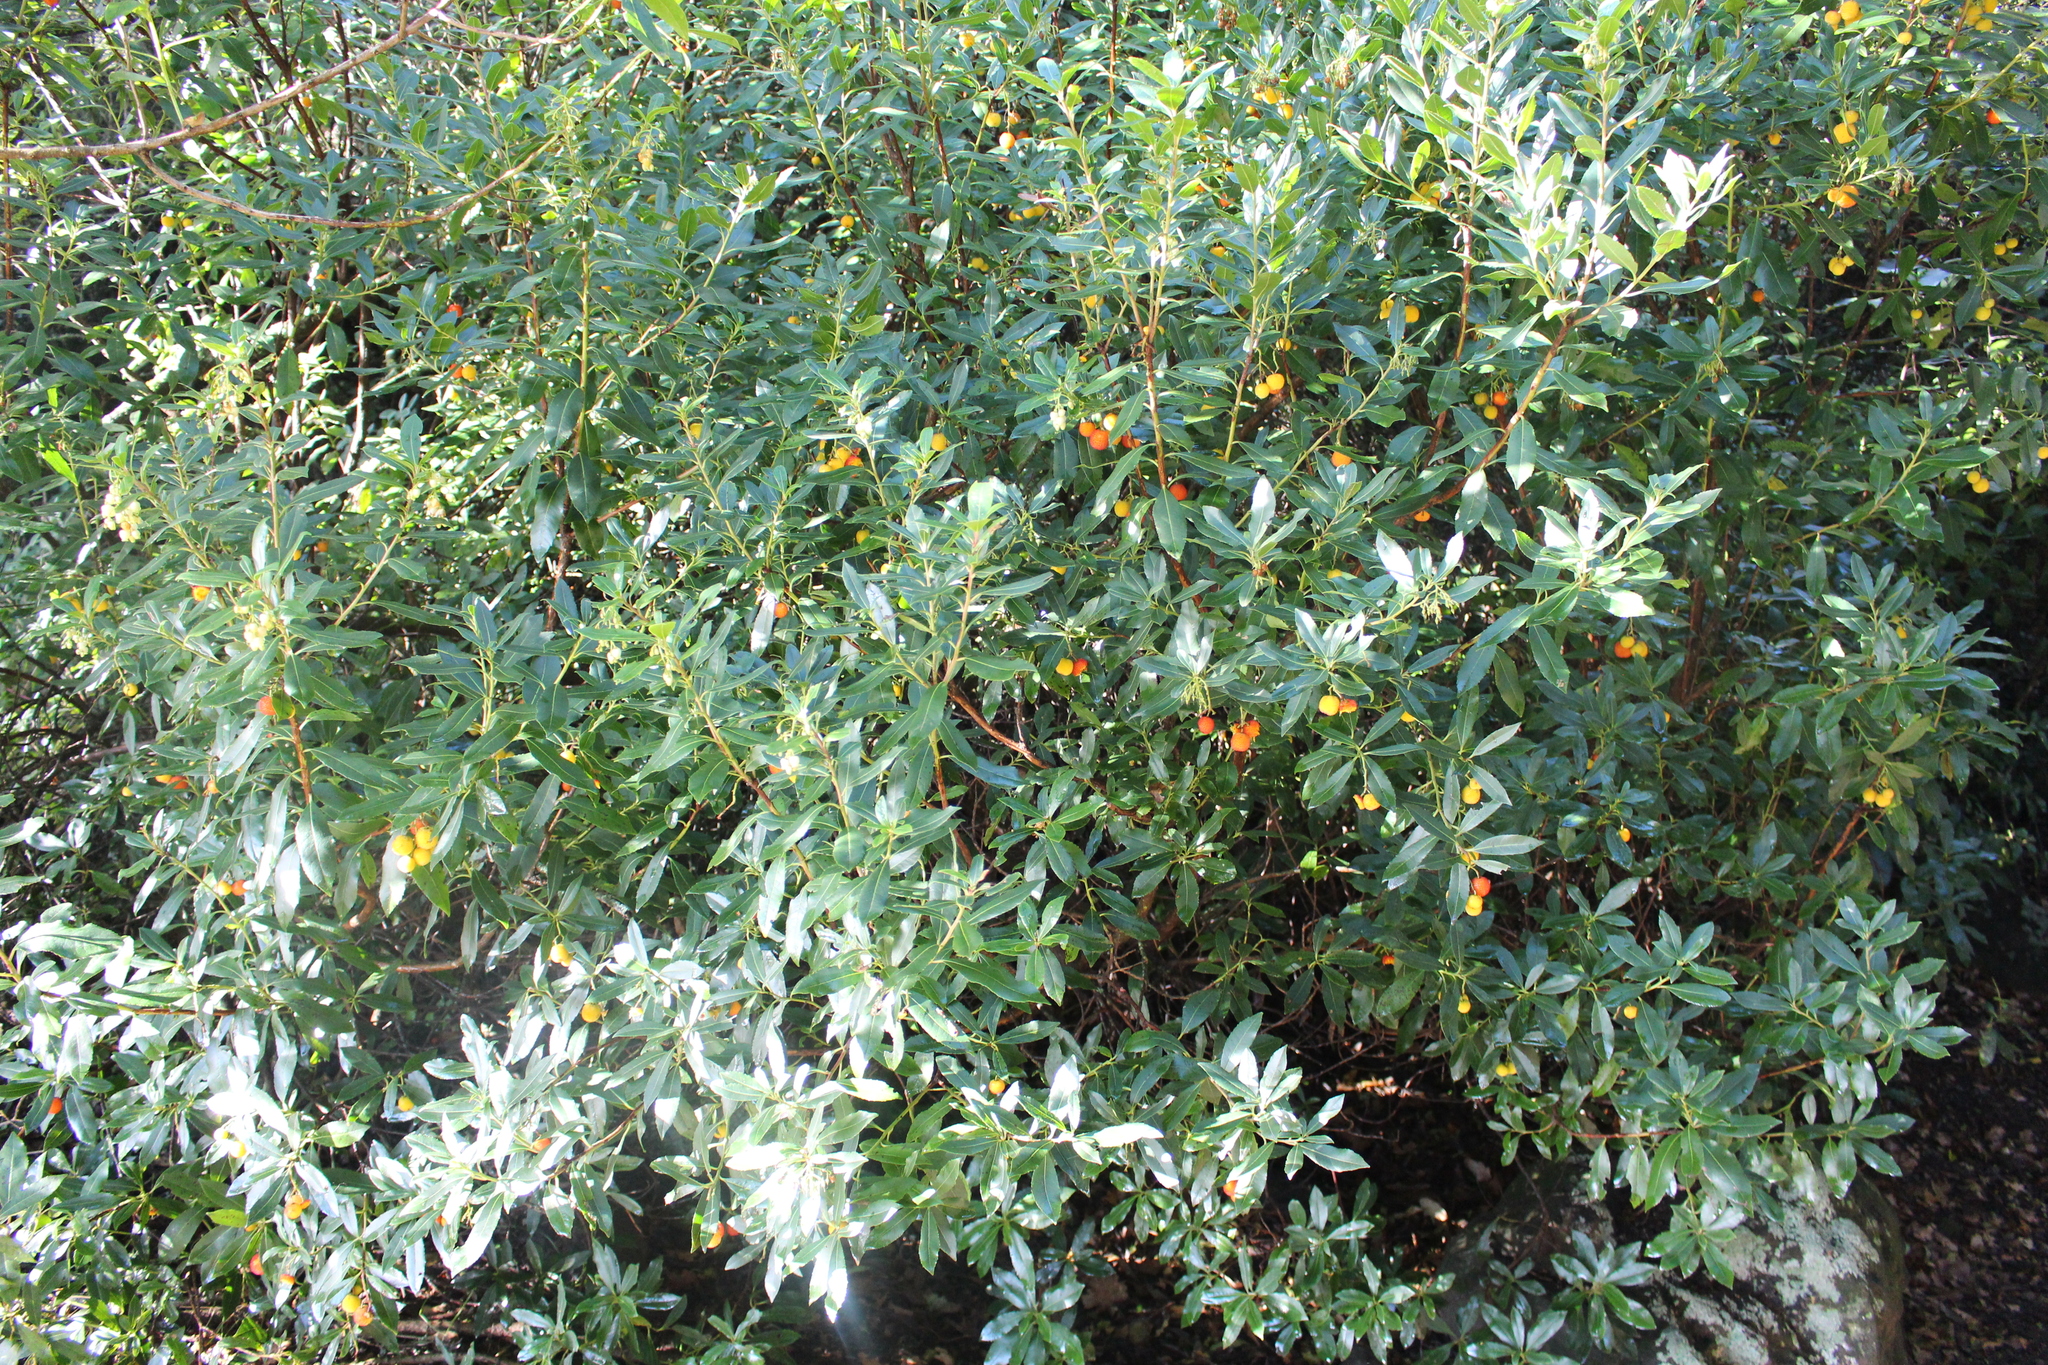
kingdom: Plantae
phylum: Tracheophyta
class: Magnoliopsida
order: Ericales
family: Ericaceae
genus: Arbutus
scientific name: Arbutus unedo
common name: Strawberry-tree
